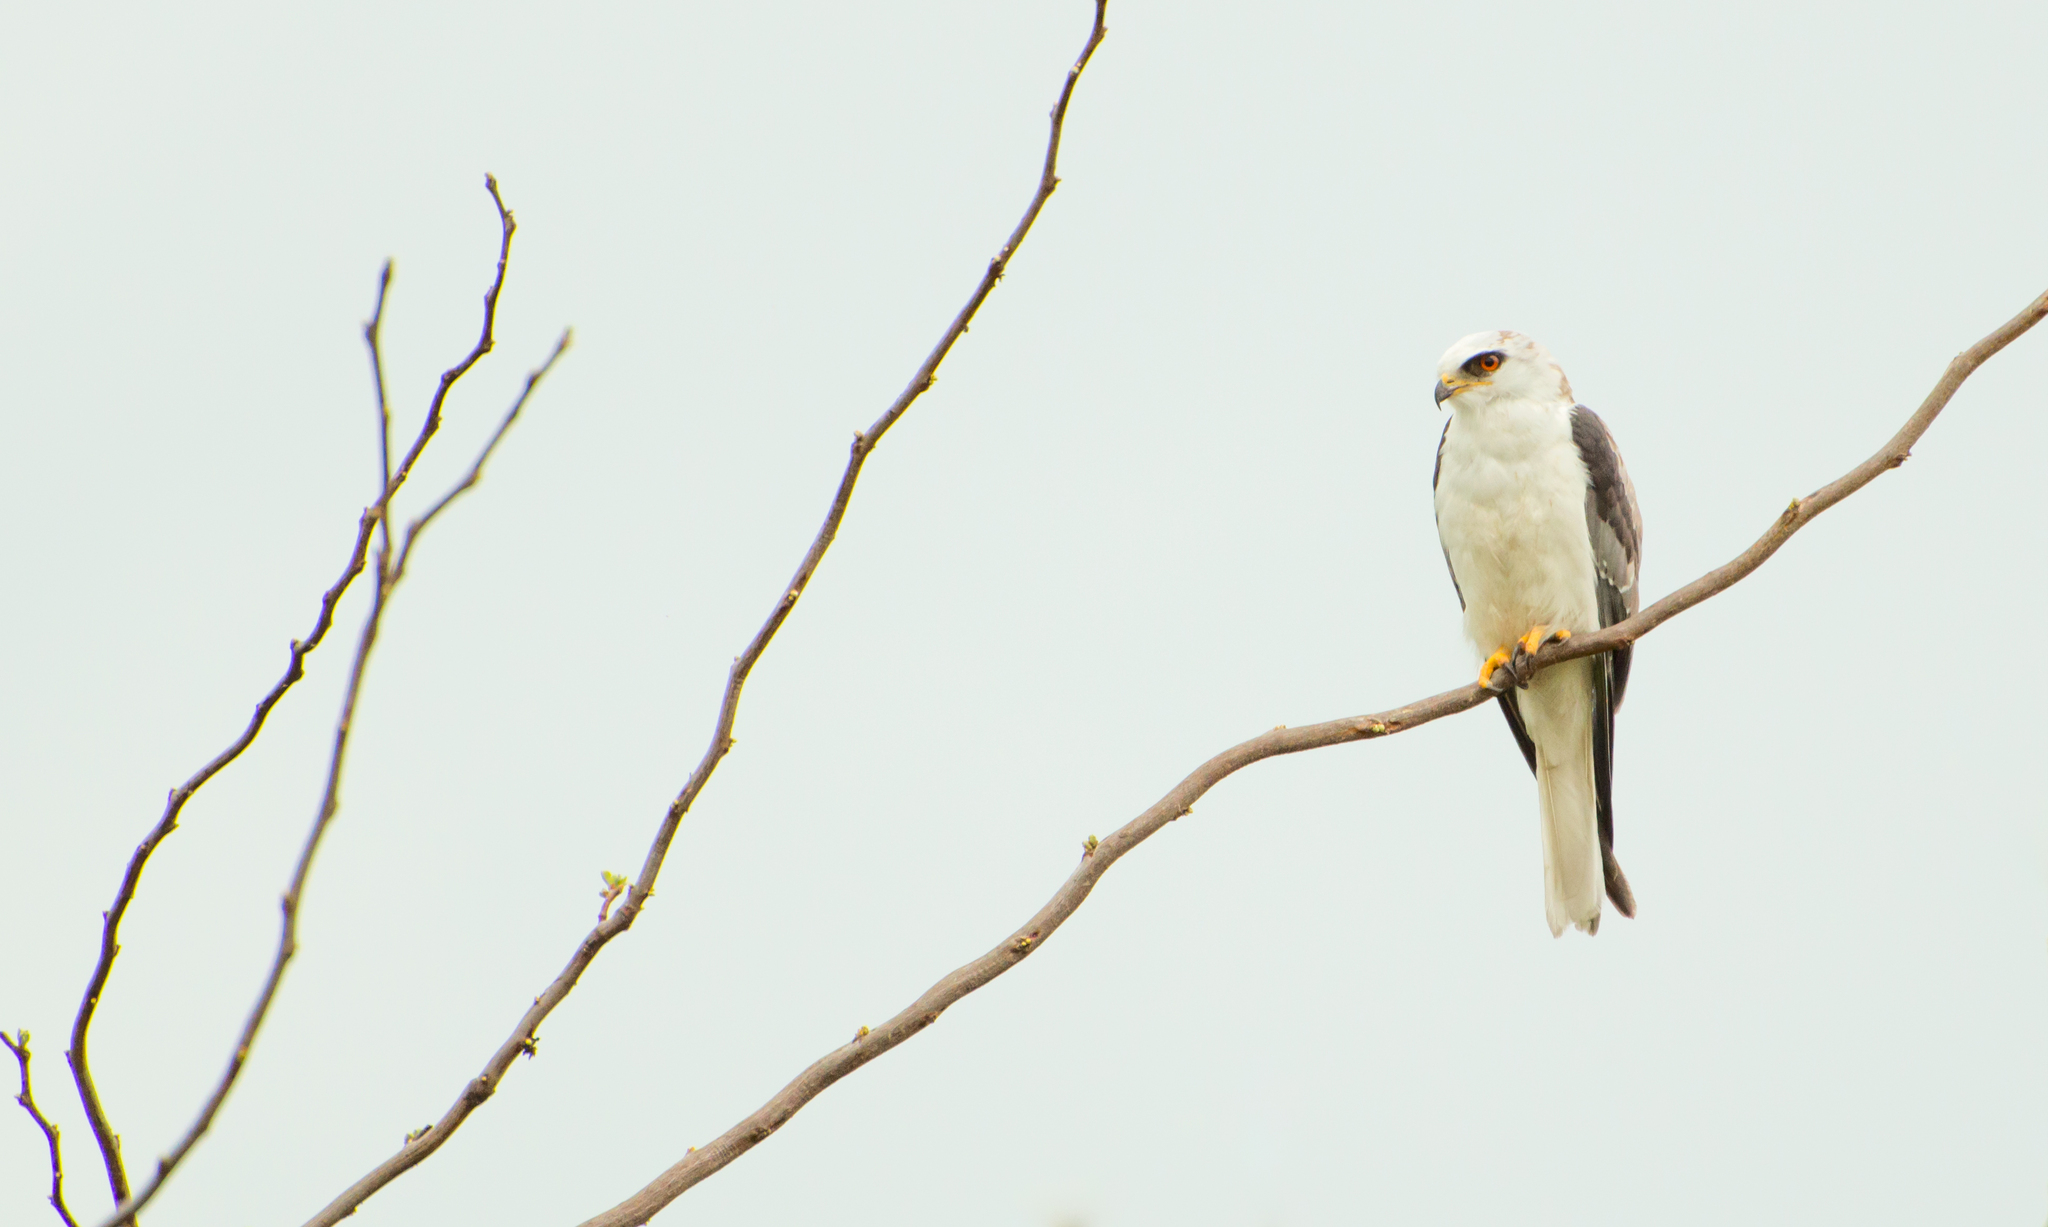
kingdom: Animalia
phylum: Chordata
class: Aves
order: Accipitriformes
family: Accipitridae
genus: Elanus
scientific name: Elanus leucurus
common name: White-tailed kite
